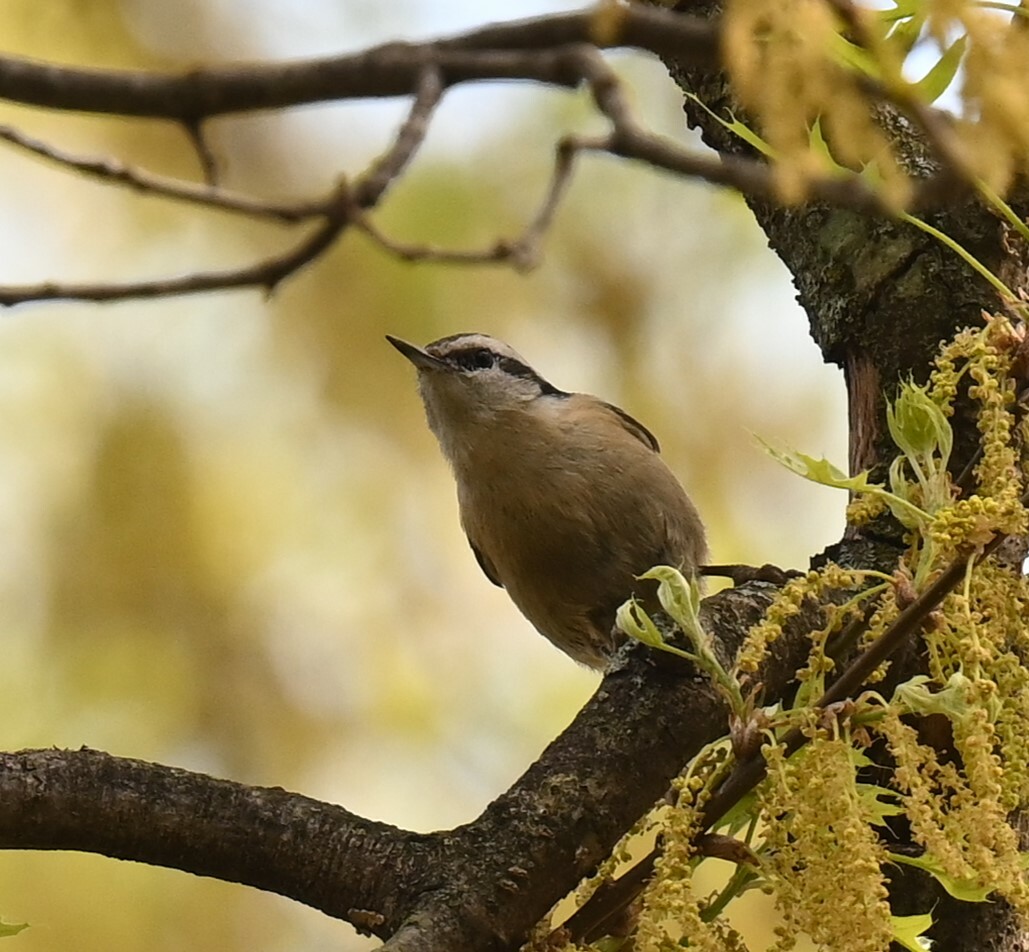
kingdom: Animalia
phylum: Chordata
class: Aves
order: Passeriformes
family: Sittidae
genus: Sitta
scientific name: Sitta canadensis
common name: Red-breasted nuthatch
